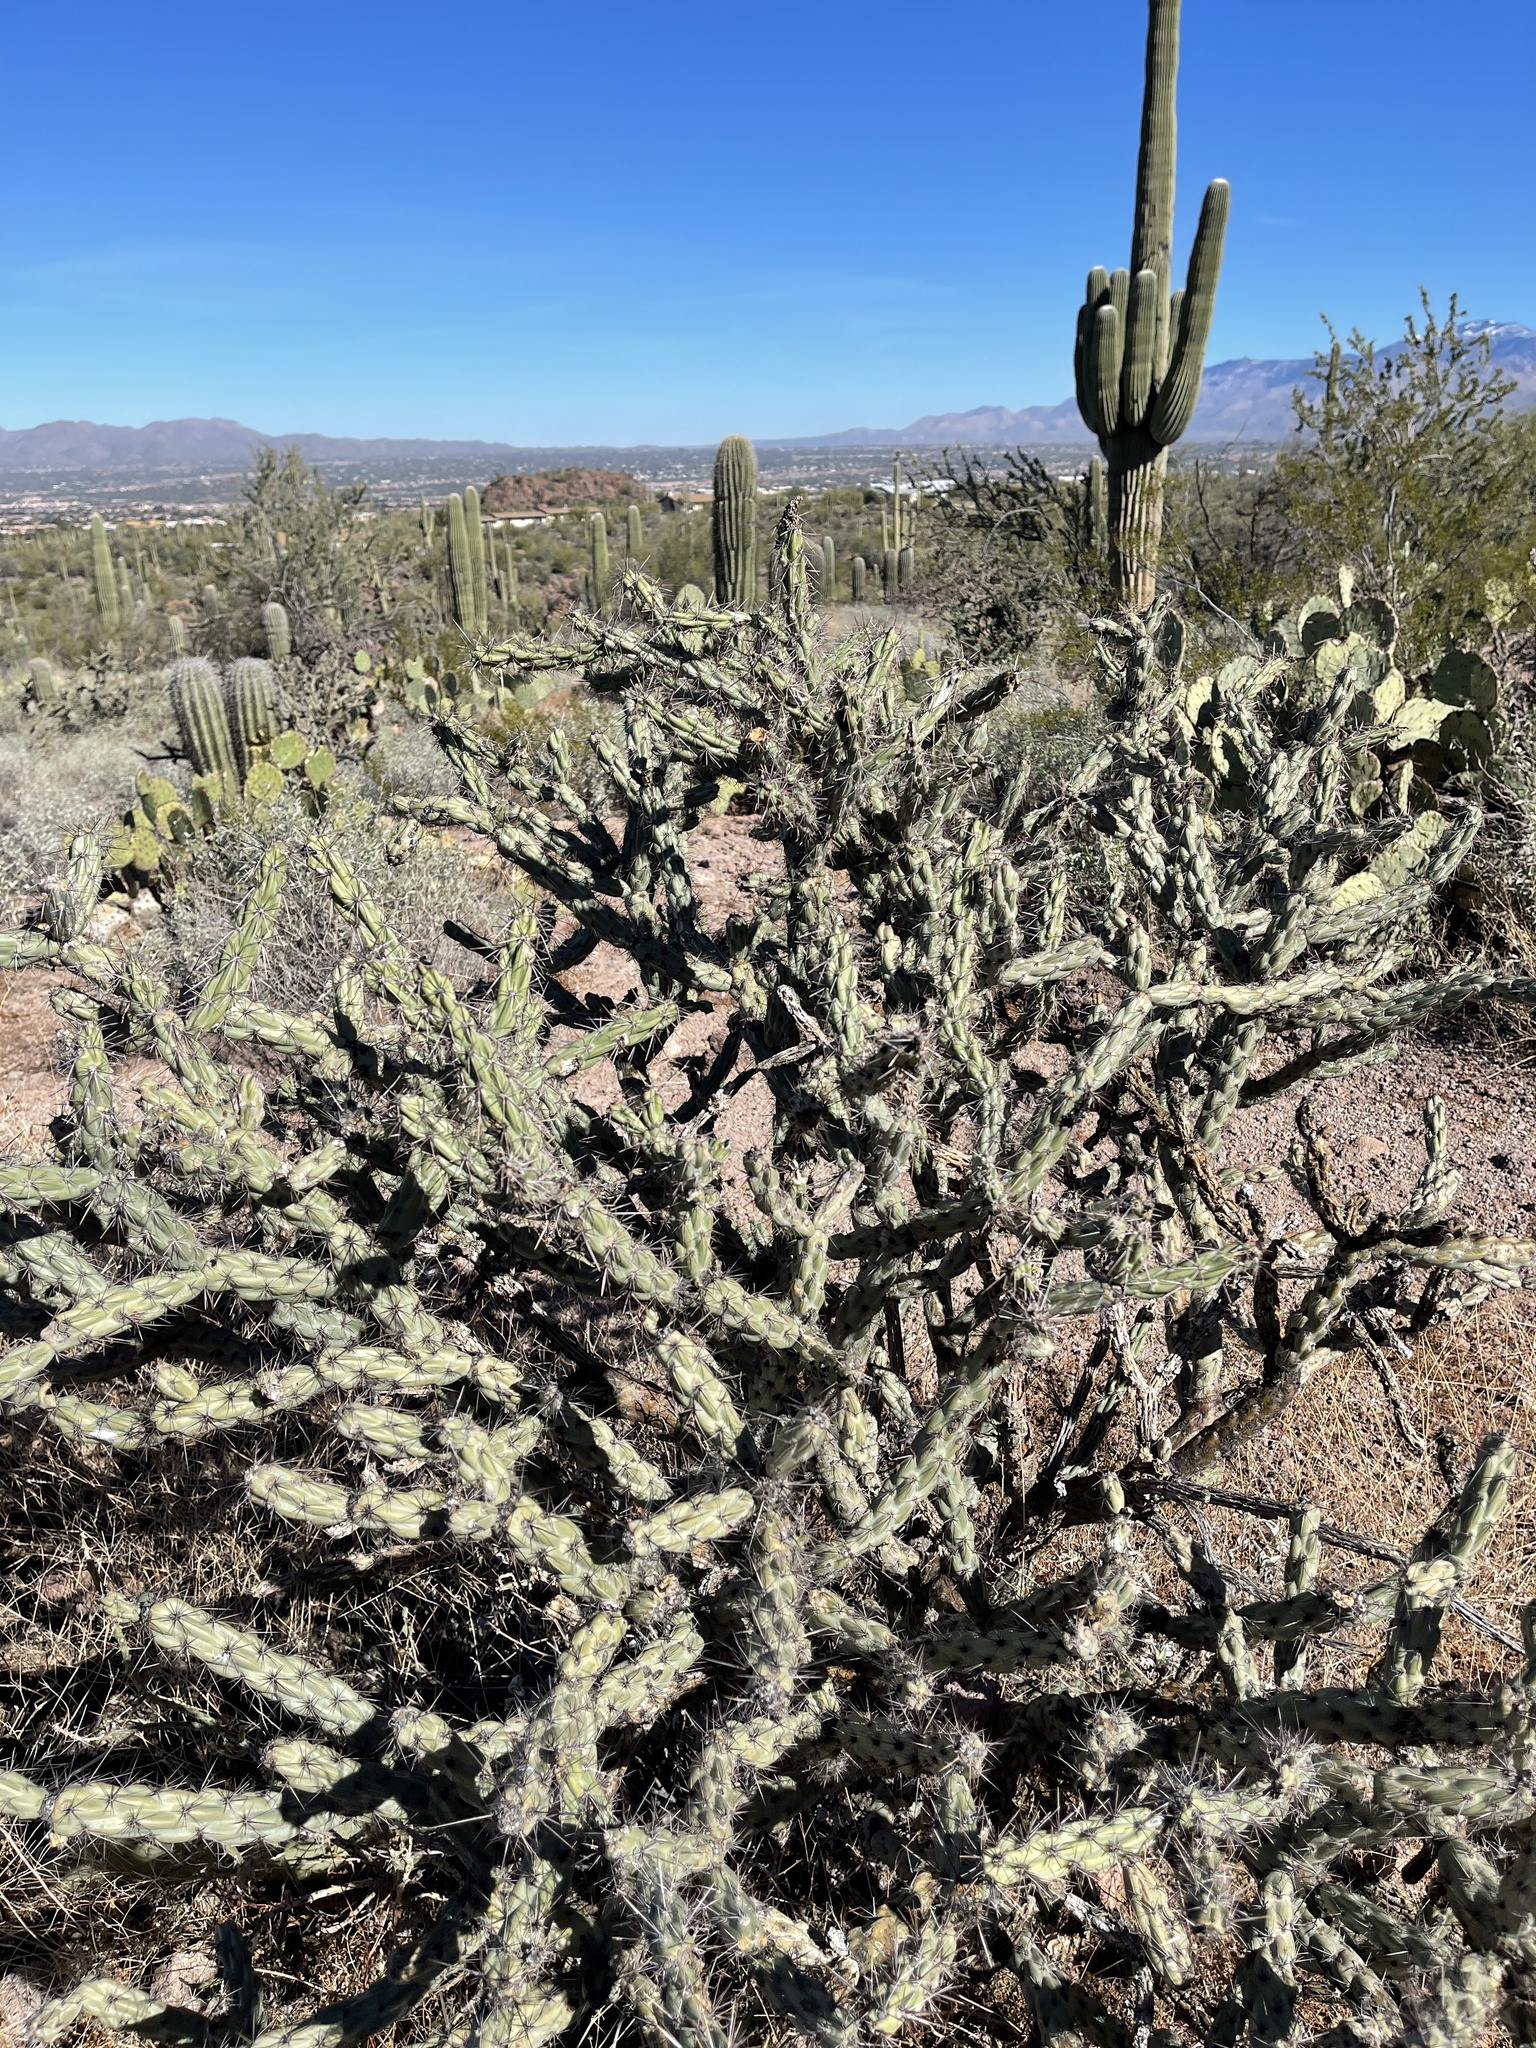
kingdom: Plantae
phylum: Tracheophyta
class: Magnoliopsida
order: Caryophyllales
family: Cactaceae
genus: Cylindropuntia
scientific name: Cylindropuntia acanthocarpa
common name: Buckhorn cholla
